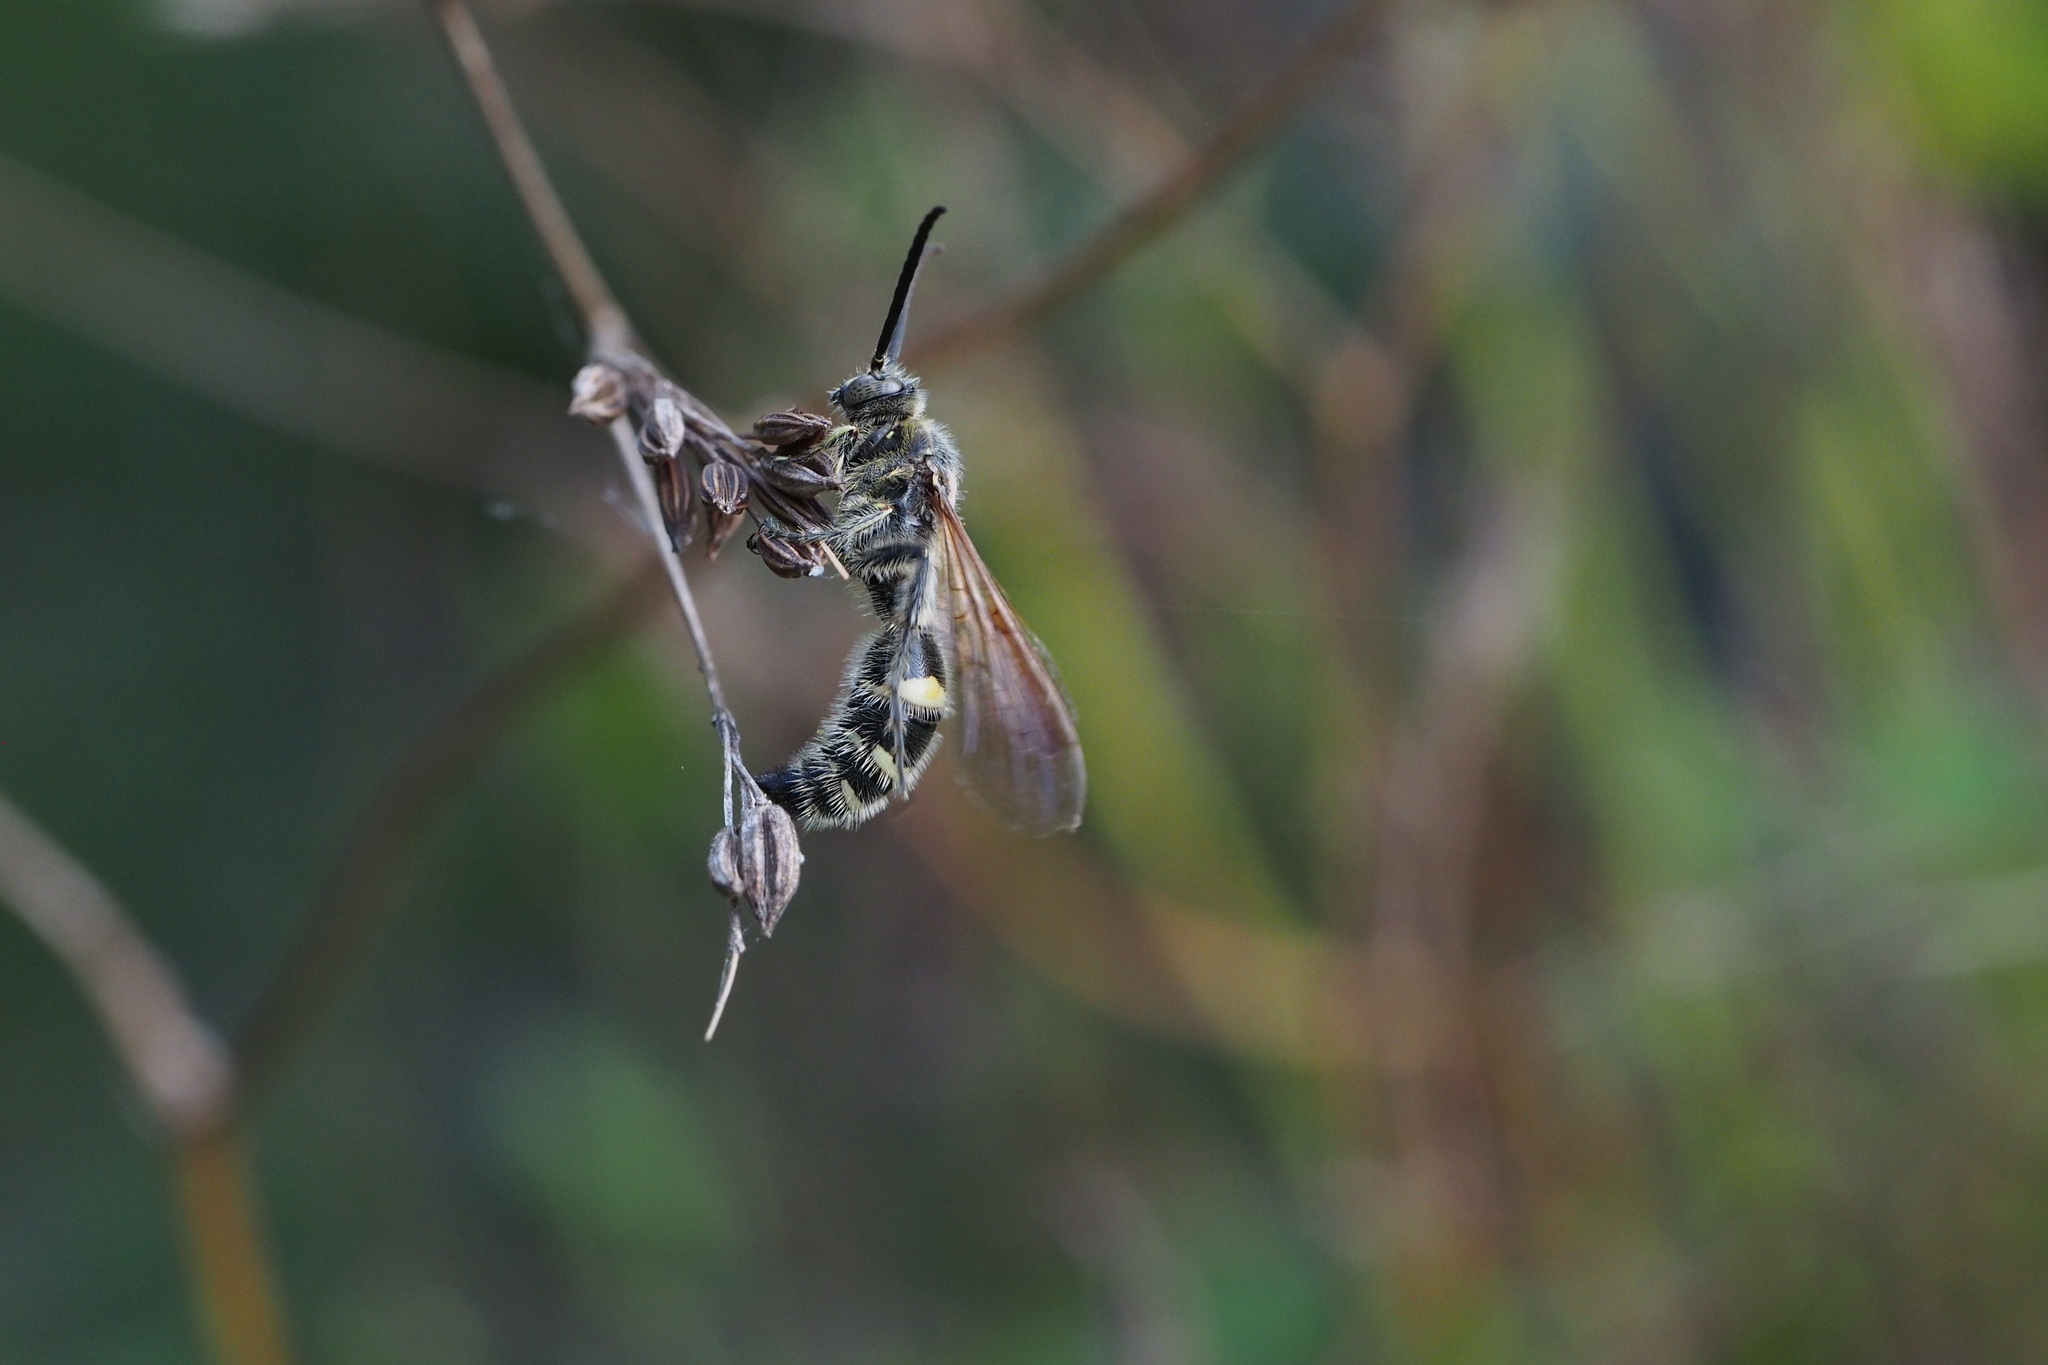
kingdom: Animalia
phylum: Arthropoda
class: Insecta
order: Hymenoptera
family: Scoliidae
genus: Campsomeris
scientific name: Campsomeris annulata
